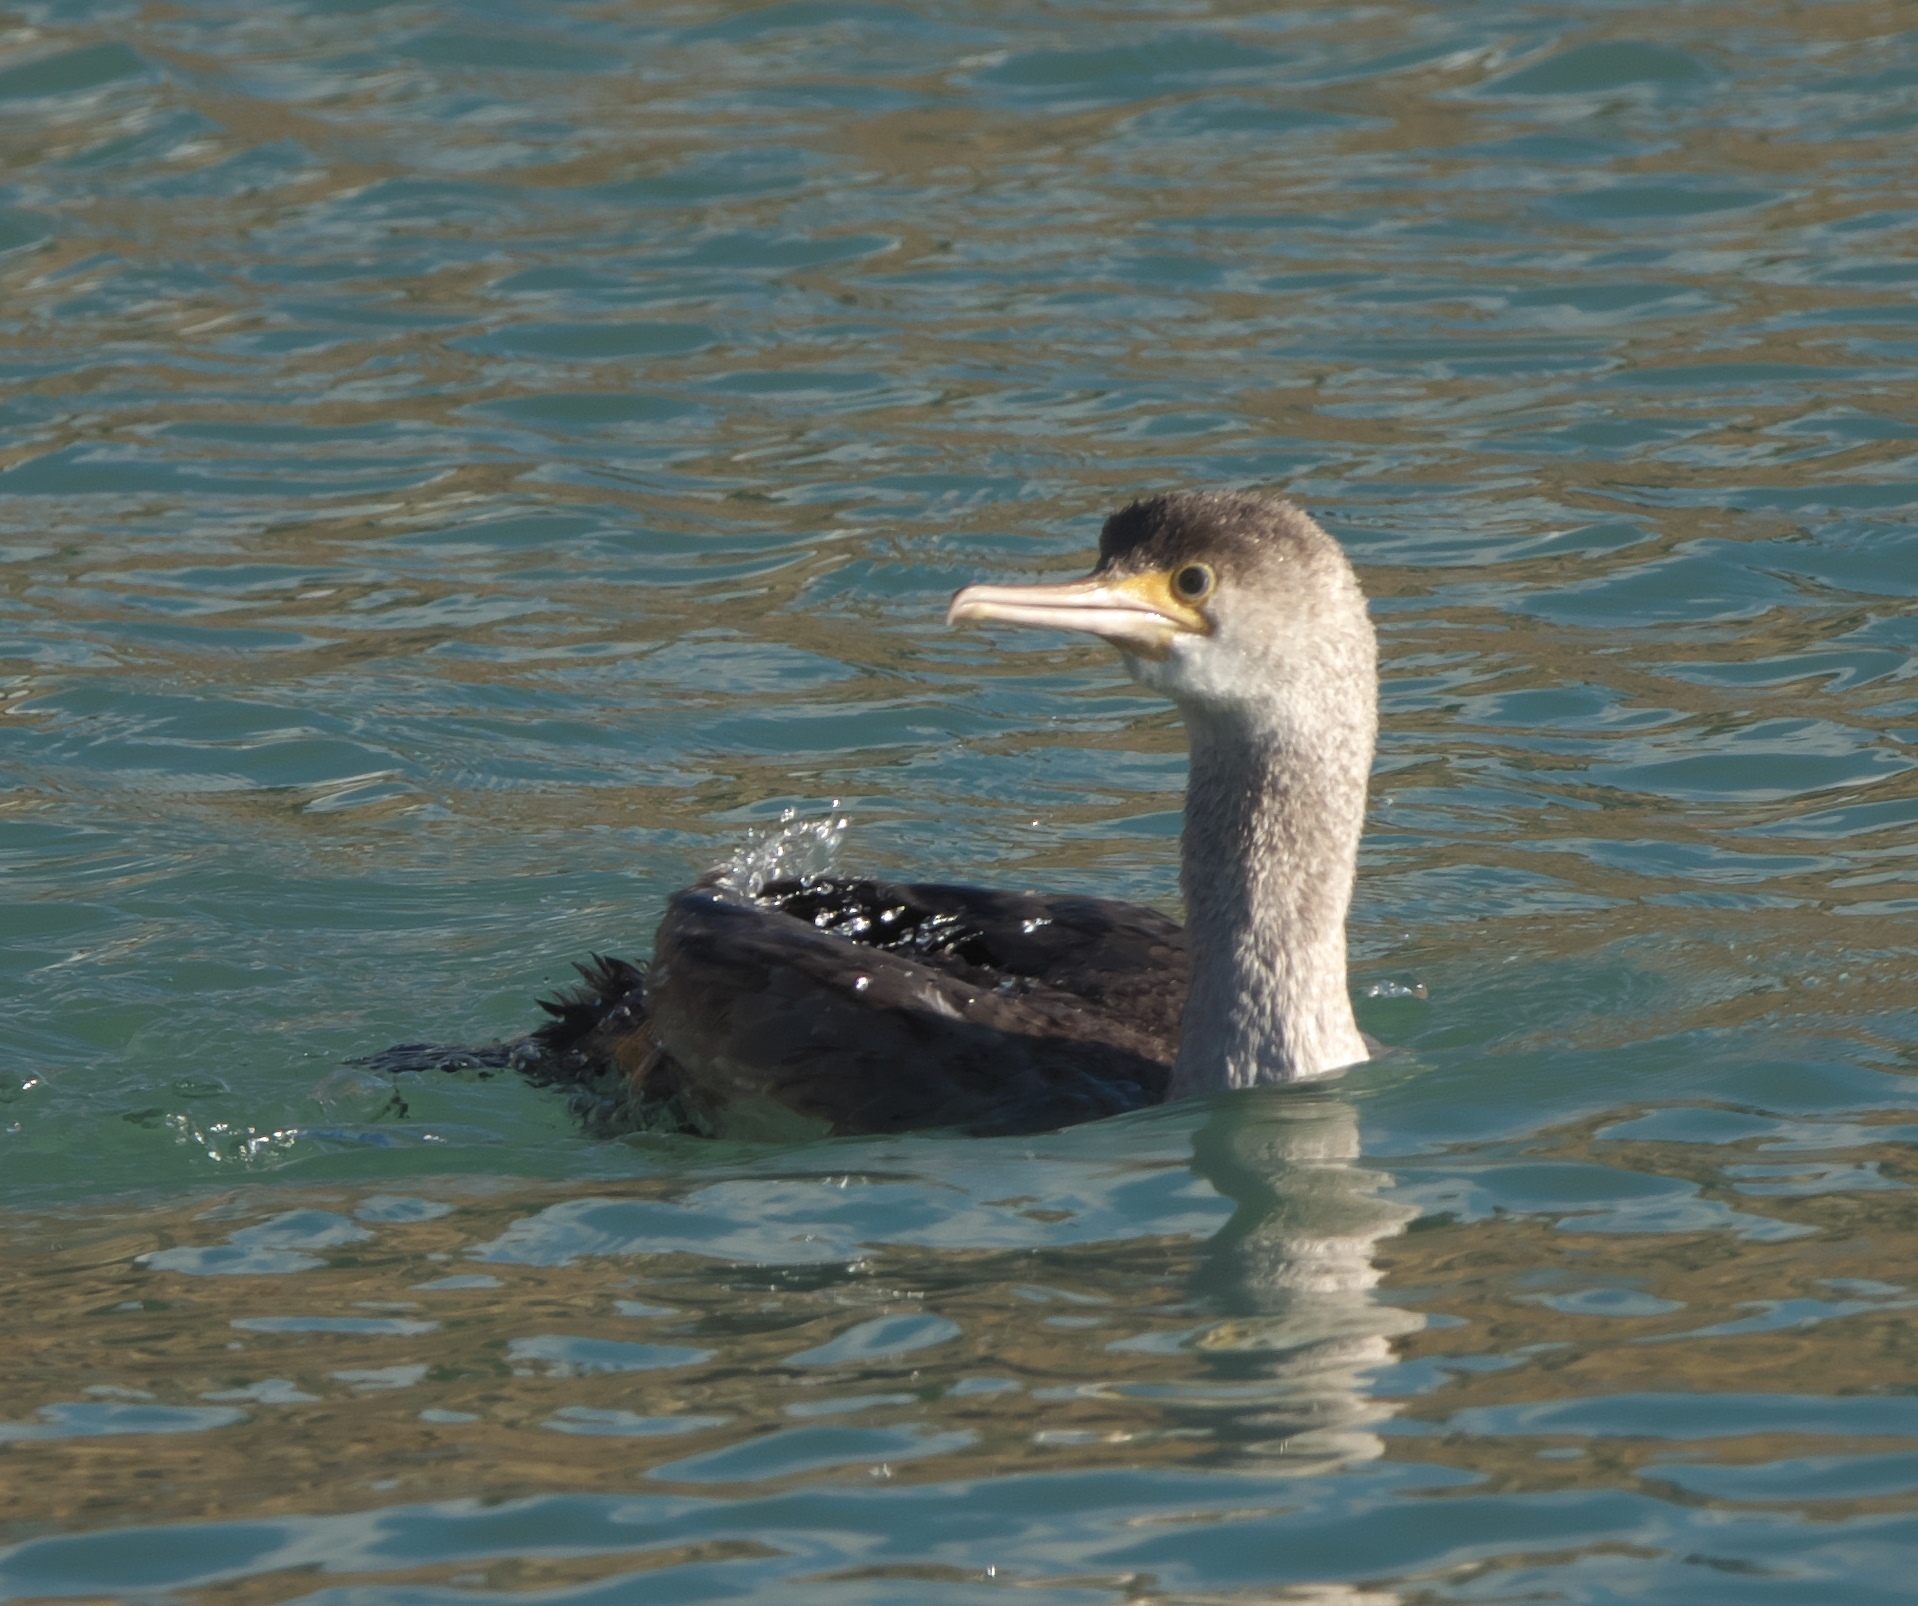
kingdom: Animalia
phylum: Chordata
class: Aves
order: Suliformes
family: Phalacrocoracidae
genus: Phalacrocorax
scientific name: Phalacrocorax punctatus
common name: Spotted shag
